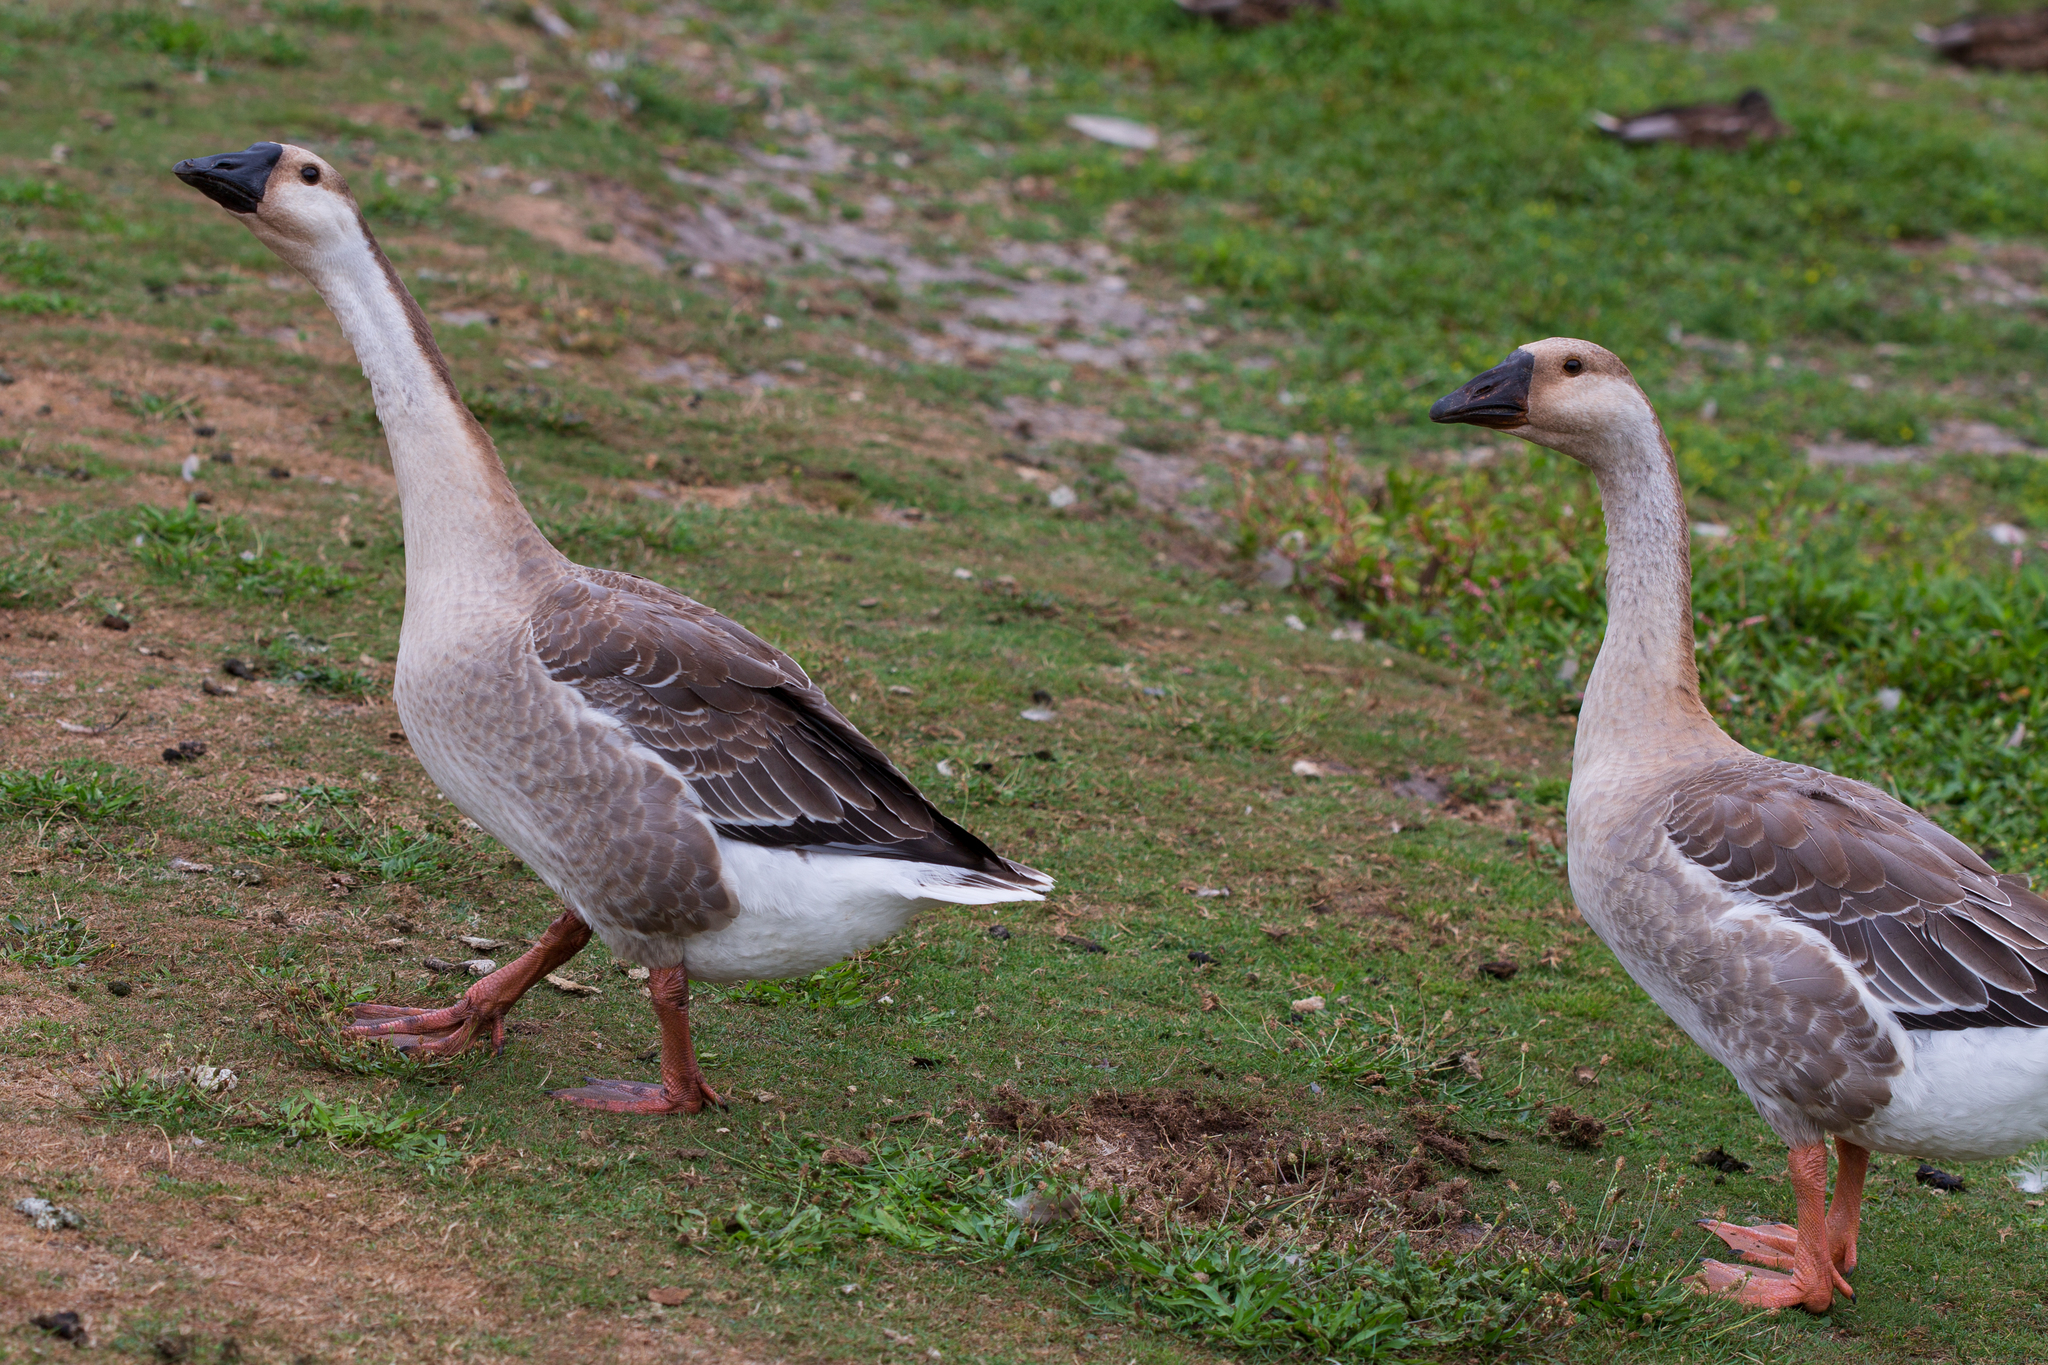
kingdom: Animalia
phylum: Chordata
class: Aves
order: Anseriformes
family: Anatidae
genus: Anser
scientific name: Anser cygnoides
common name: Swan goose
